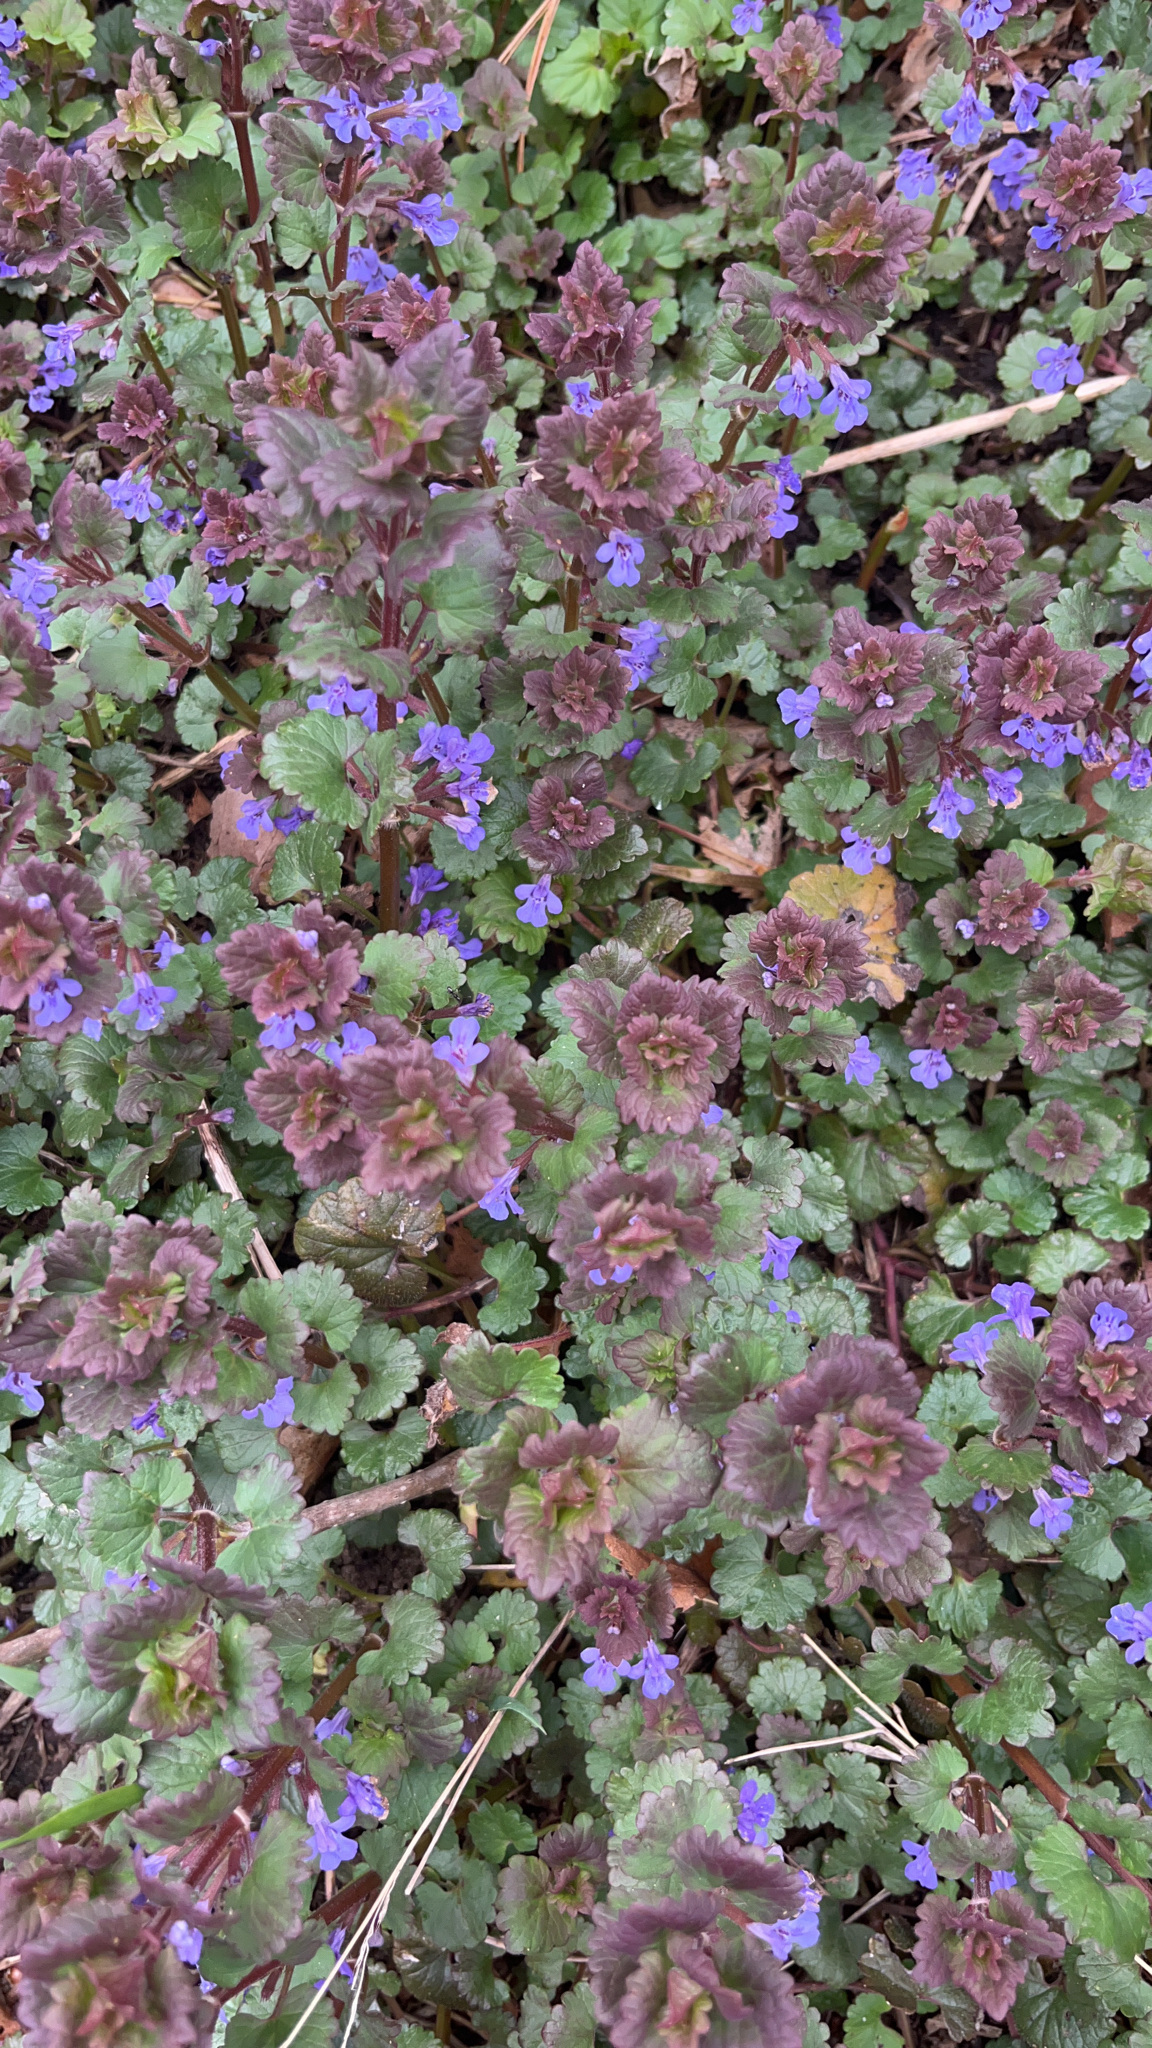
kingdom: Plantae
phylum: Tracheophyta
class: Magnoliopsida
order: Lamiales
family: Lamiaceae
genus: Glechoma
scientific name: Glechoma hederacea
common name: Ground ivy
